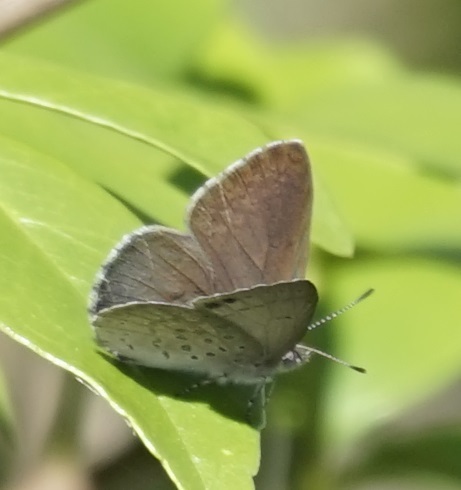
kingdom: Animalia
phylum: Arthropoda
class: Insecta
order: Lepidoptera
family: Lycaenidae
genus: Candalides
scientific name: Candalides
